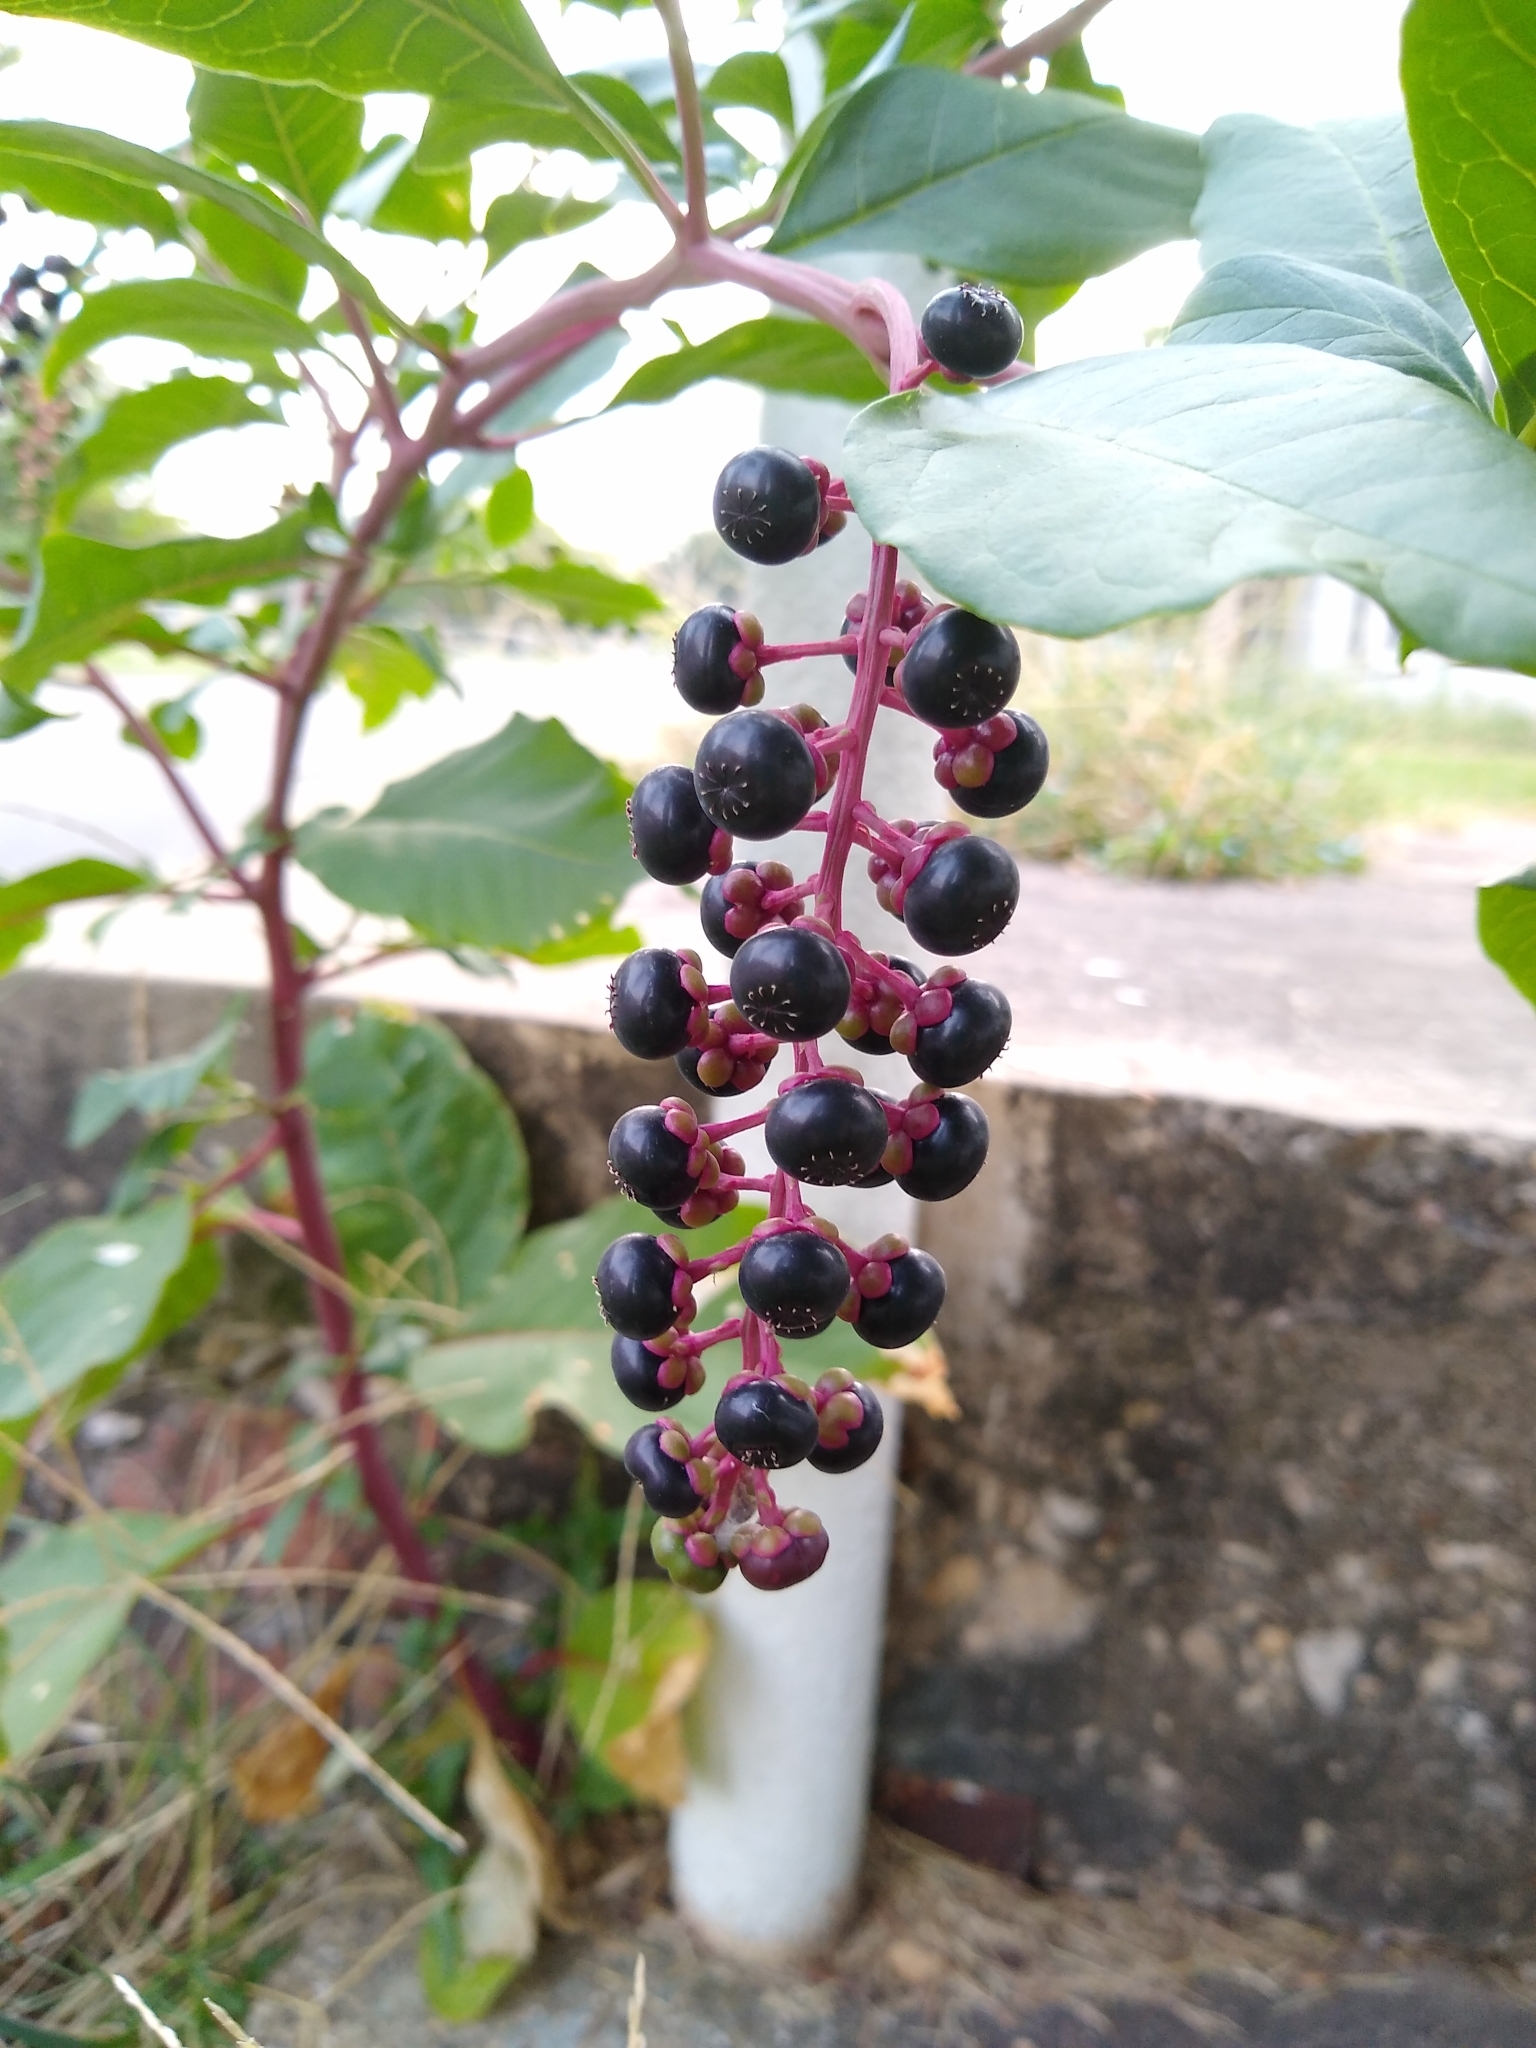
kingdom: Plantae
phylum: Tracheophyta
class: Magnoliopsida
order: Caryophyllales
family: Phytolaccaceae
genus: Phytolacca
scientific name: Phytolacca americana
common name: American pokeweed
